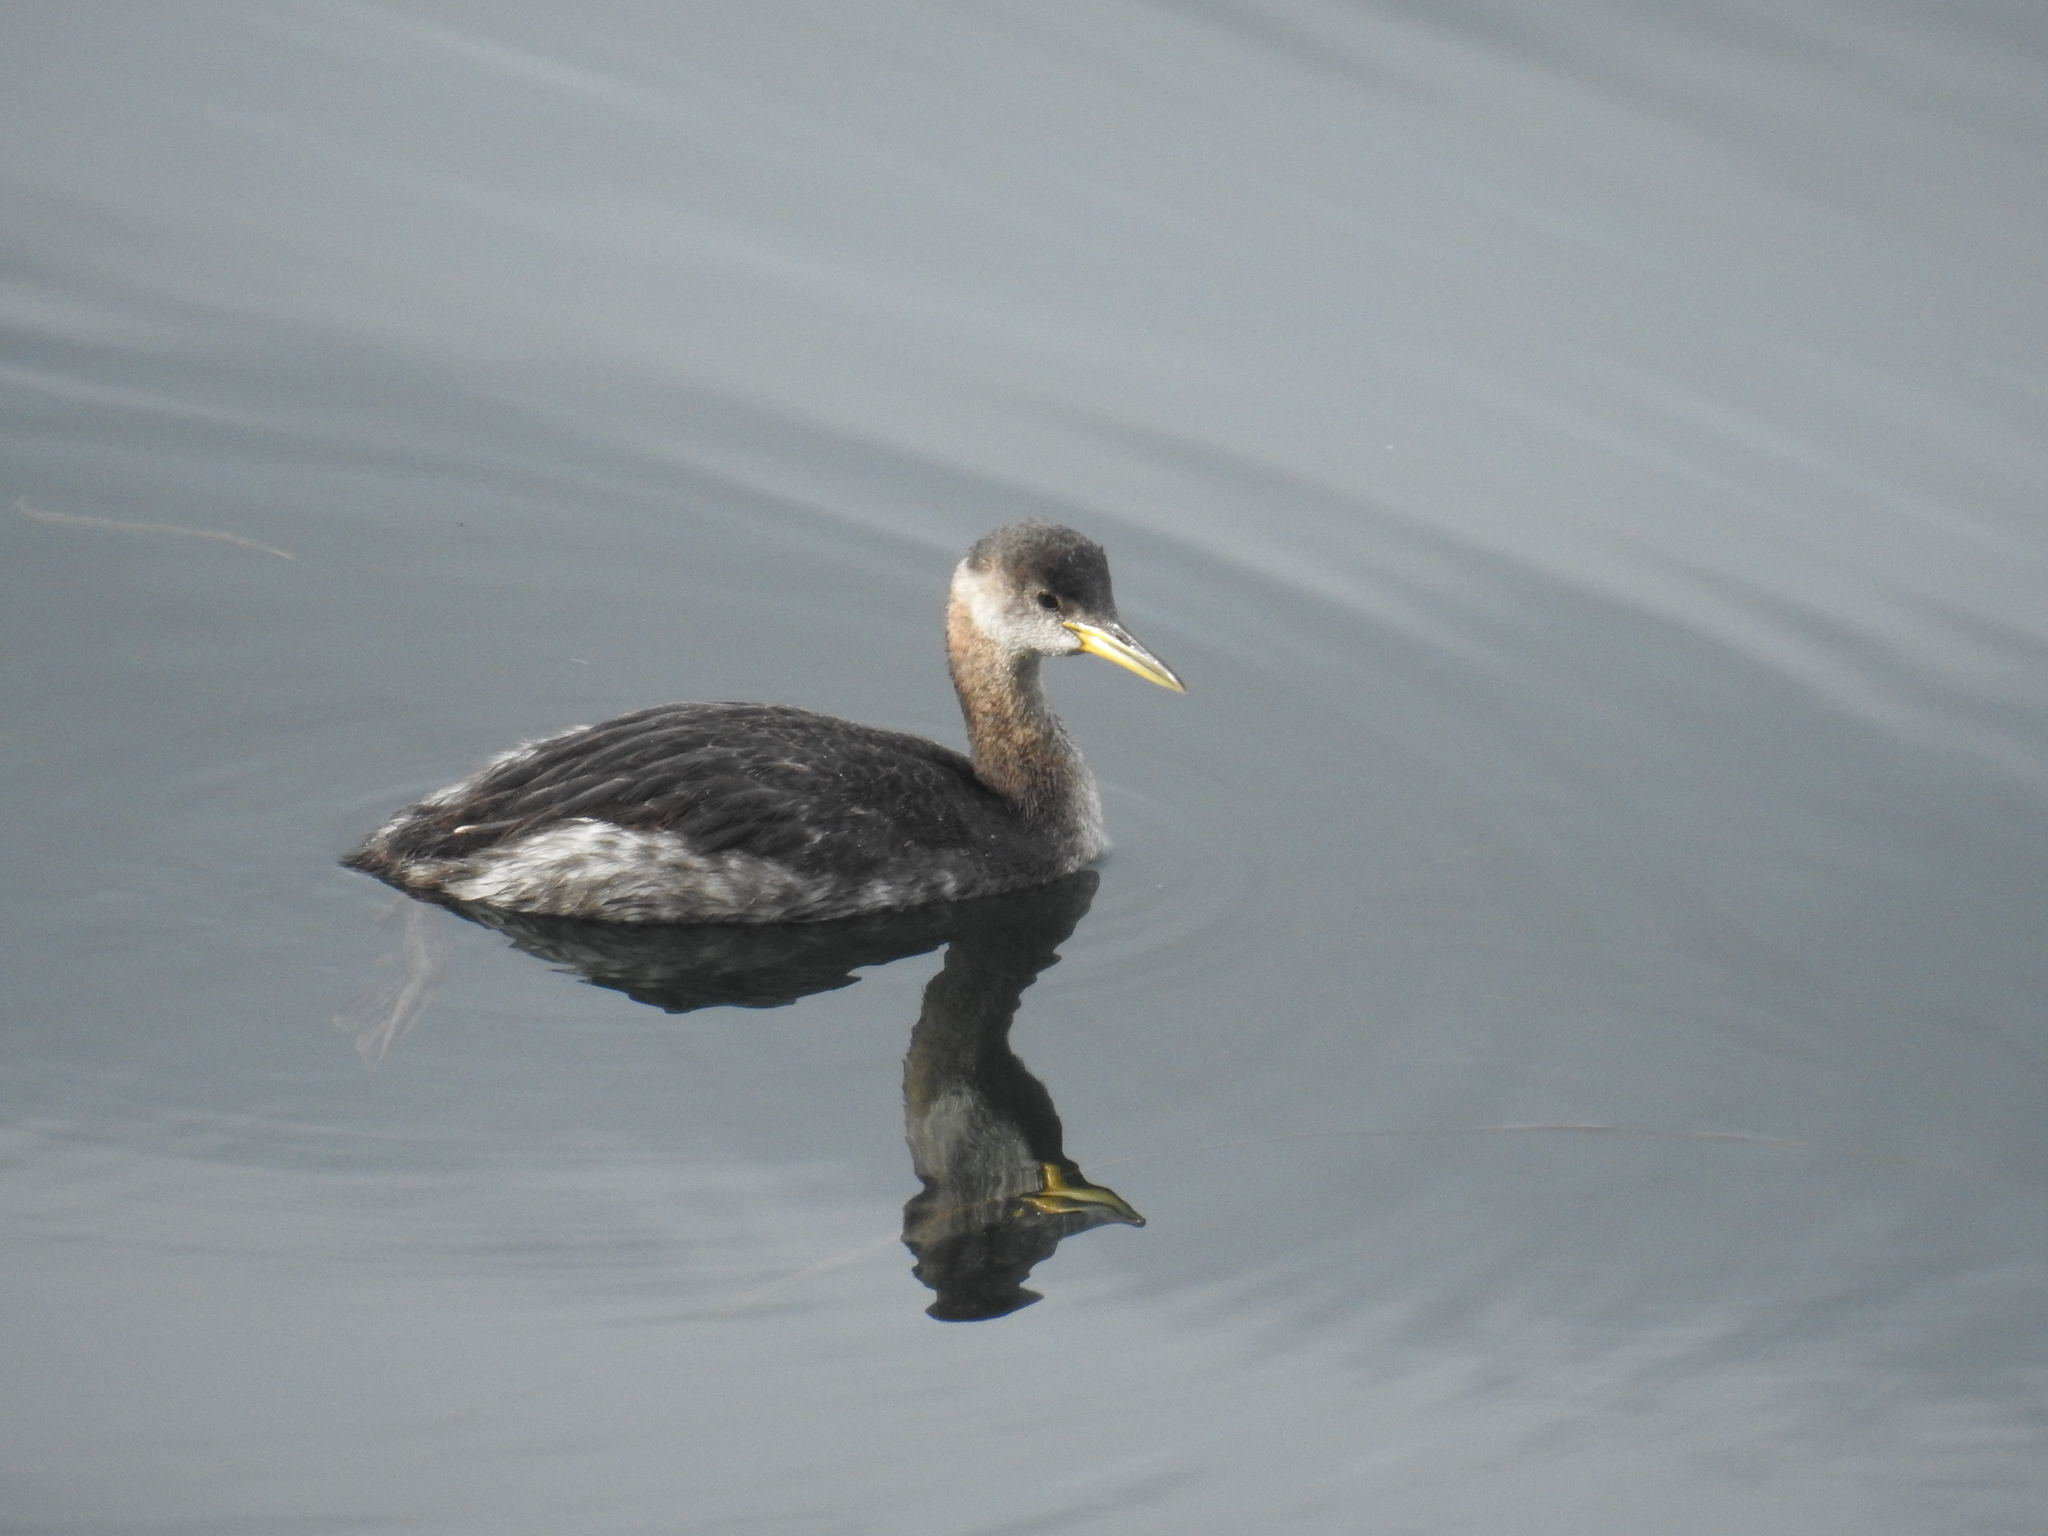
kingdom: Animalia
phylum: Chordata
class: Aves
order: Podicipediformes
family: Podicipedidae
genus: Podiceps
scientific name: Podiceps grisegena
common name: Red-necked grebe
